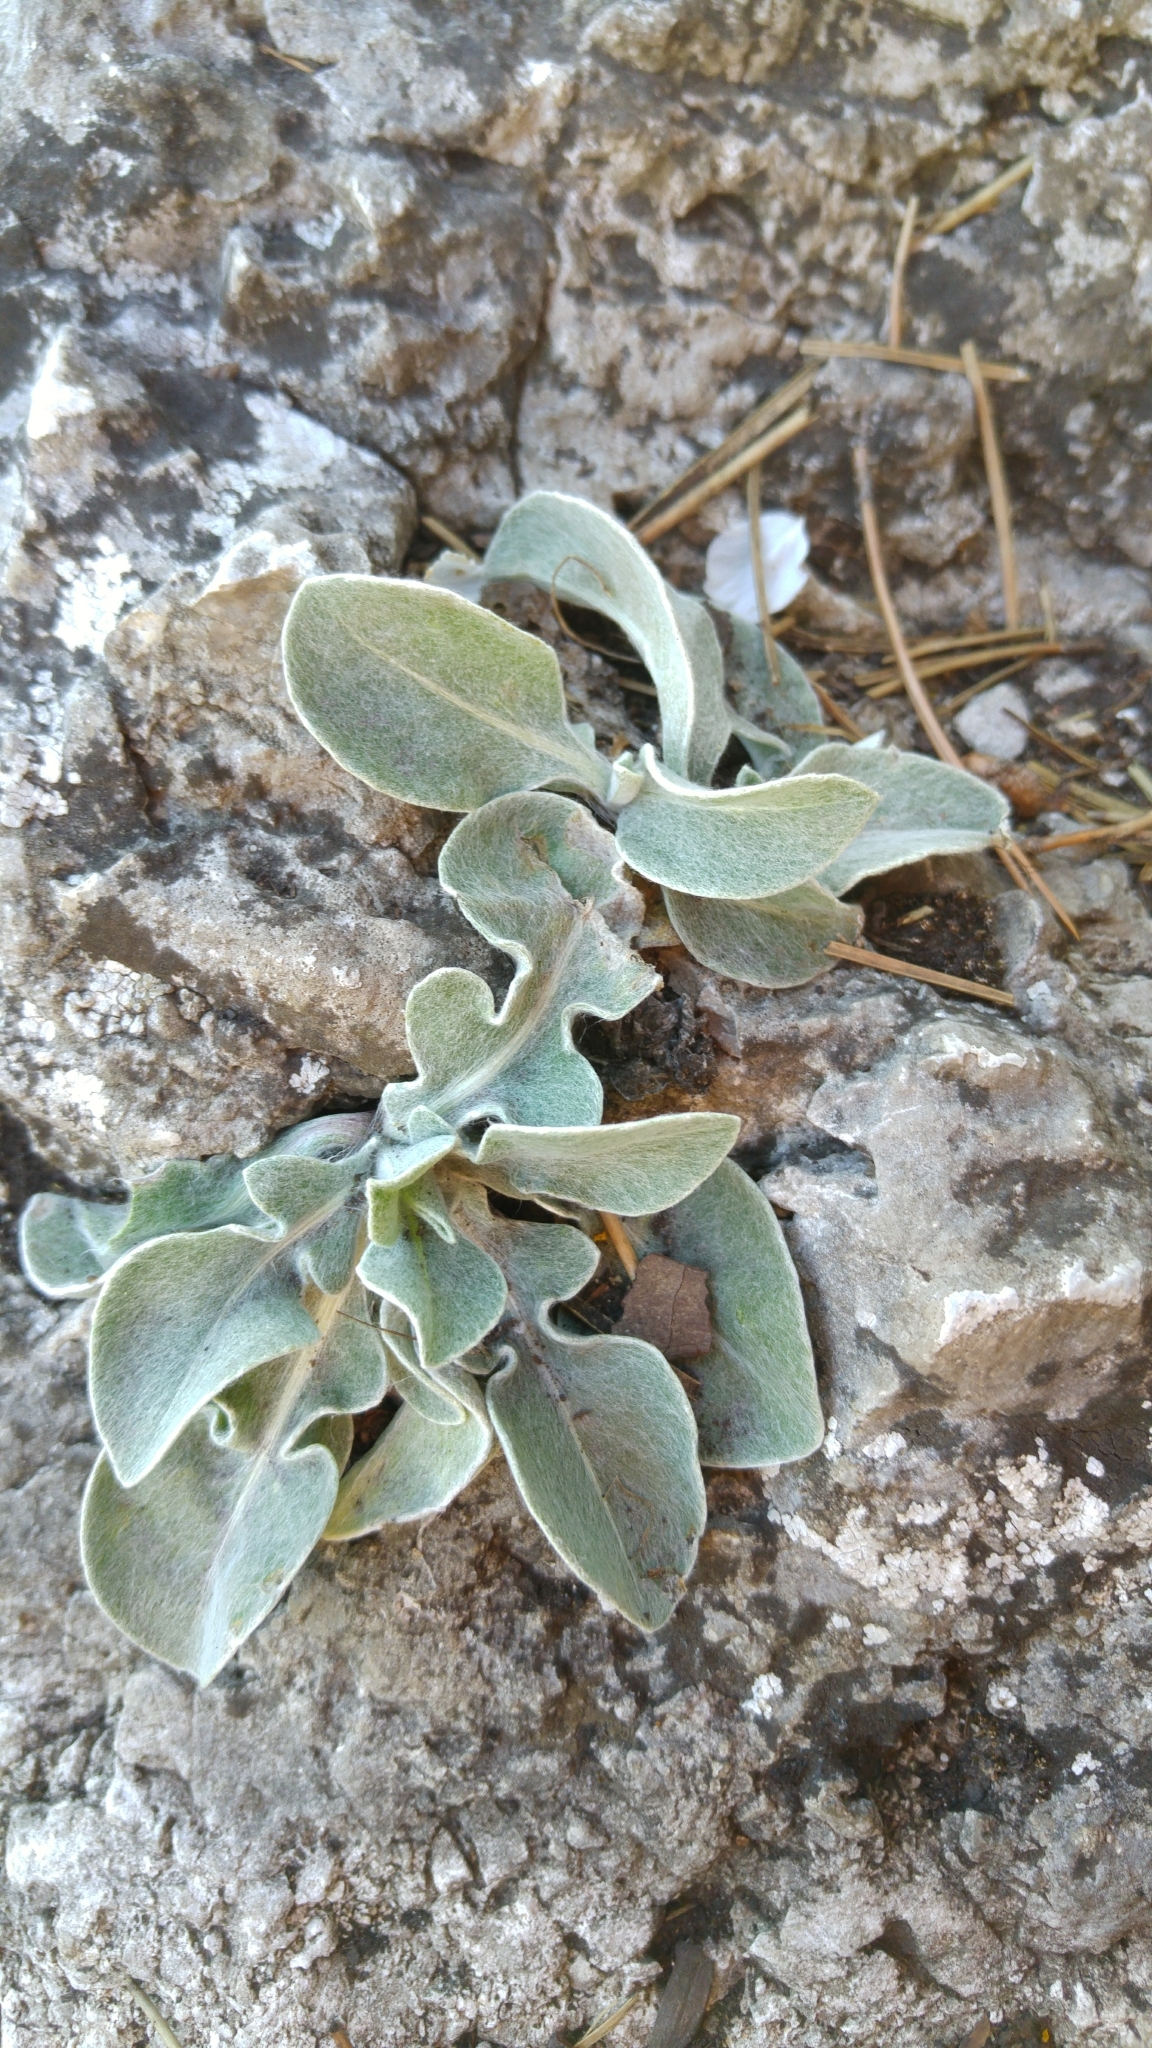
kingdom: Plantae
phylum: Tracheophyta
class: Magnoliopsida
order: Asterales
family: Asteraceae
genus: Centaurea
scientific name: Centaurea triumfettii
